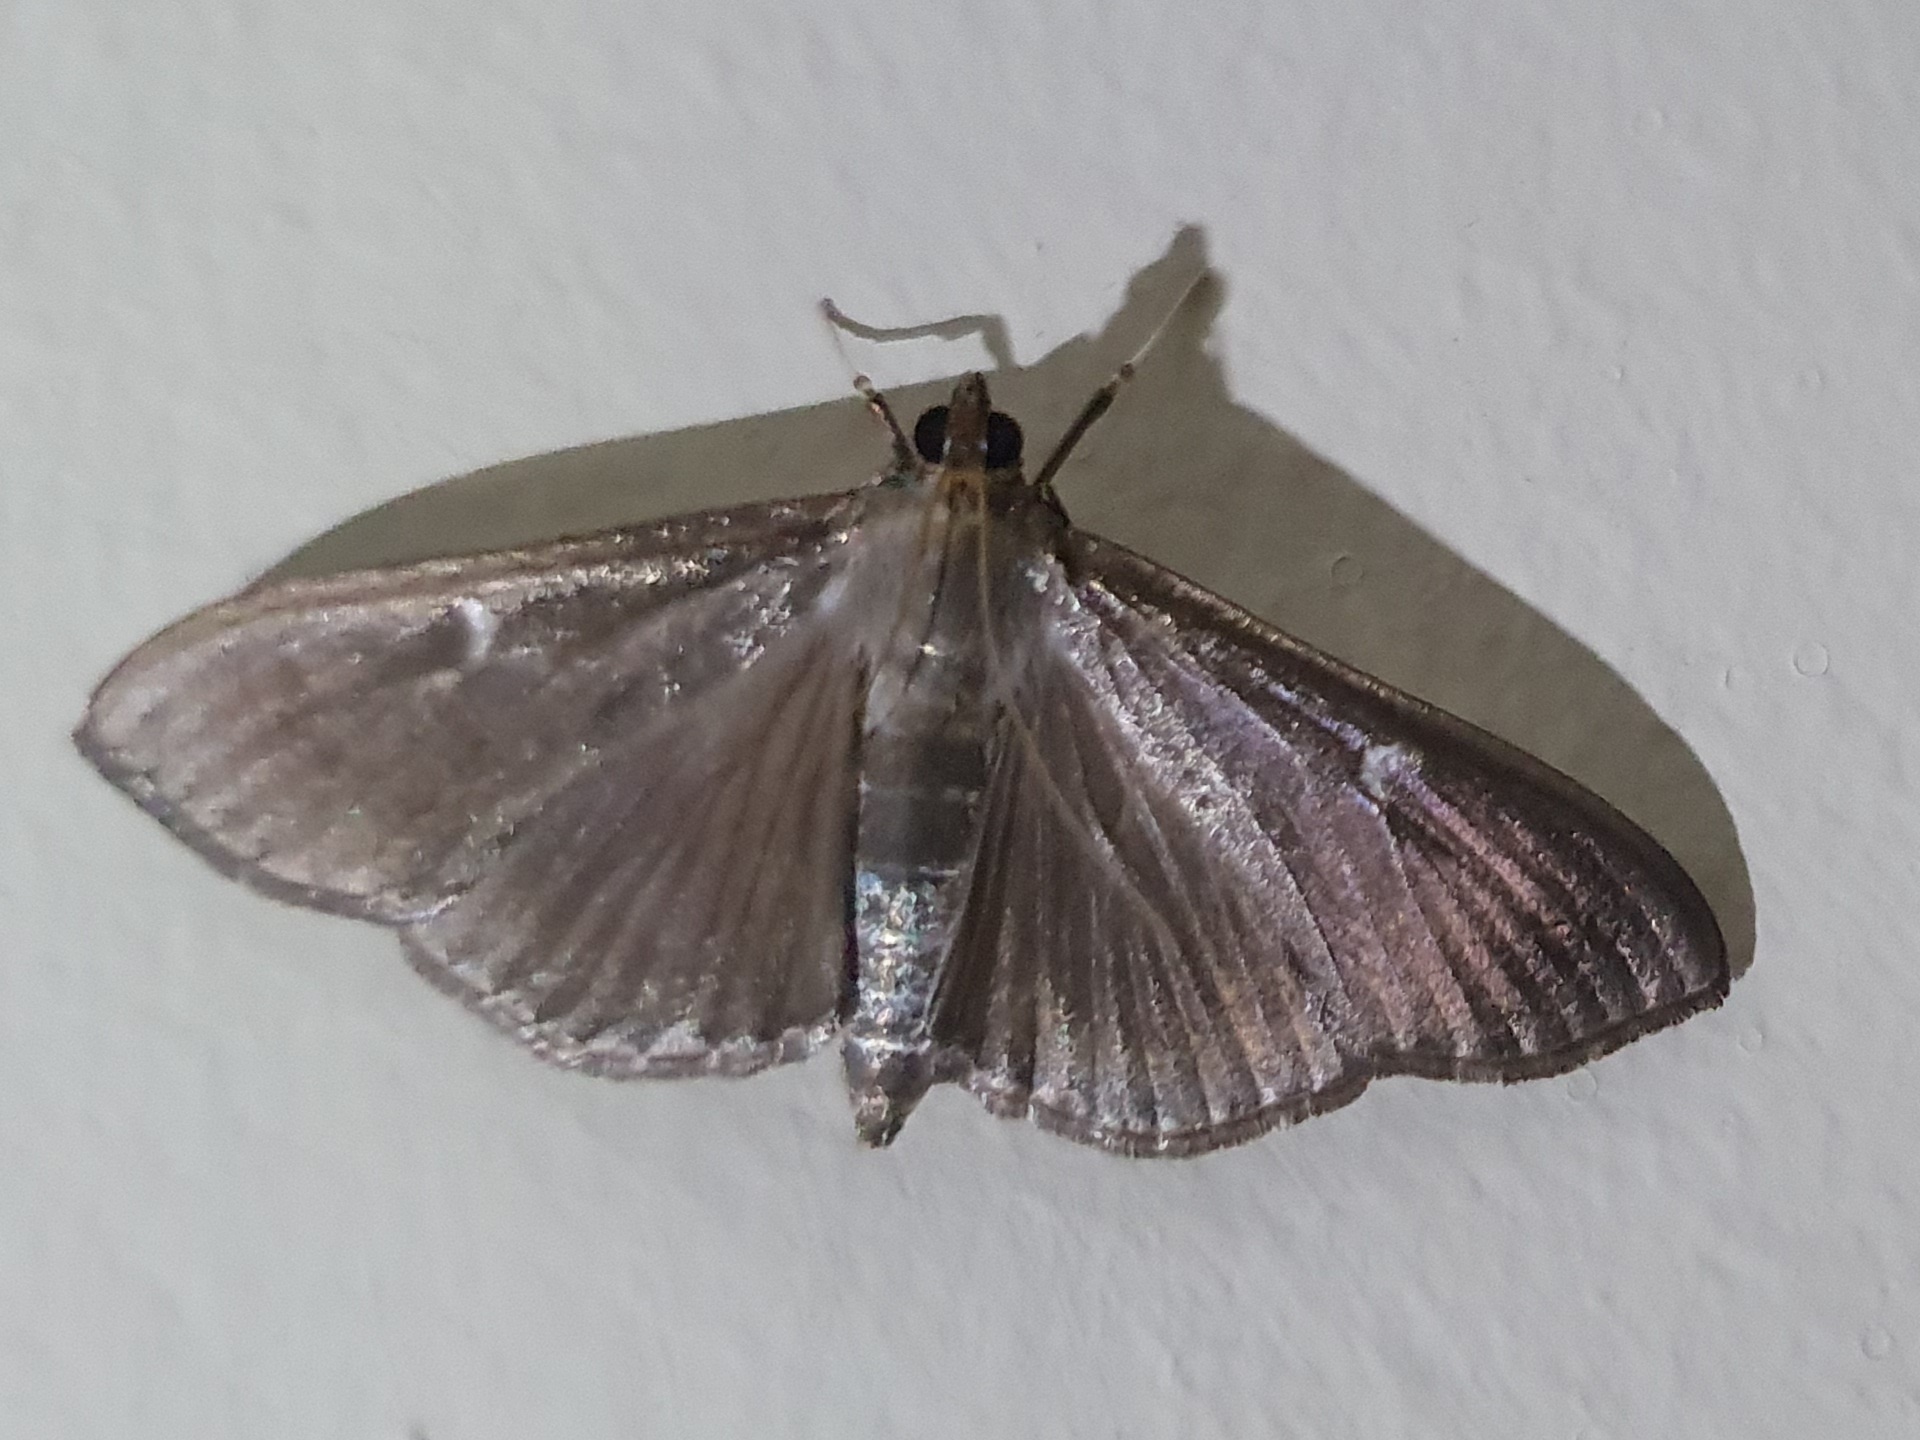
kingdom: Animalia
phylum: Arthropoda
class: Insecta
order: Lepidoptera
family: Crambidae
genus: Cydalima
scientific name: Cydalima perspectalis
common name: Box tree moth
